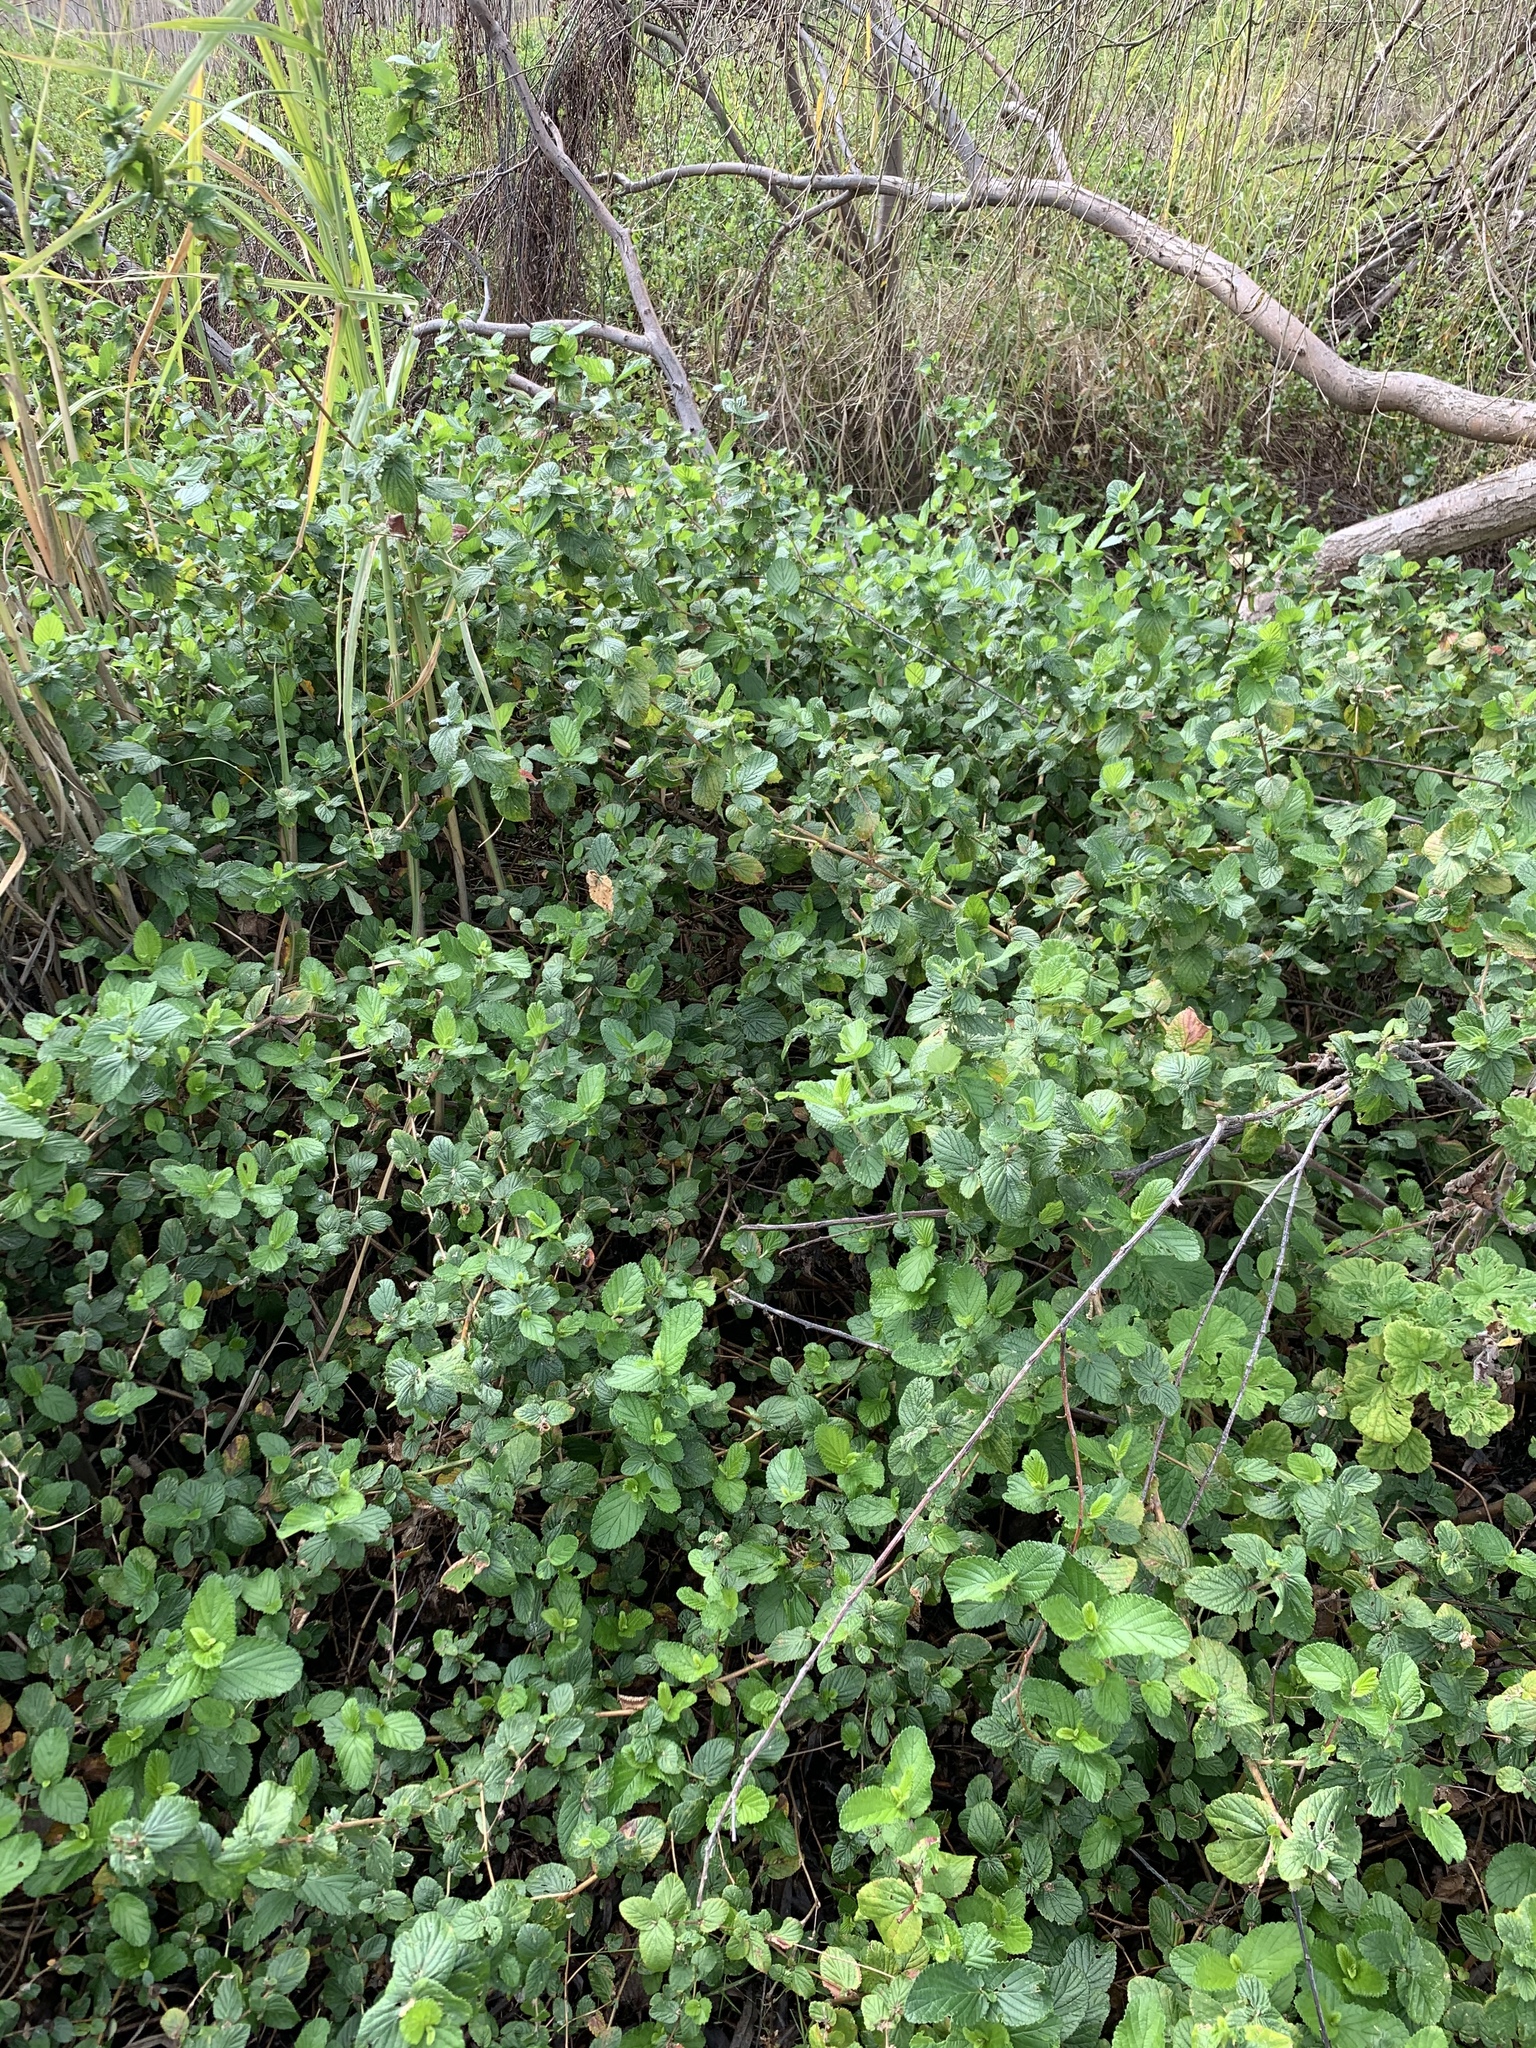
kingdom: Plantae
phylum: Tracheophyta
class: Magnoliopsida
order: Rosales
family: Rosaceae
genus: Cliffortia
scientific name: Cliffortia odorata
